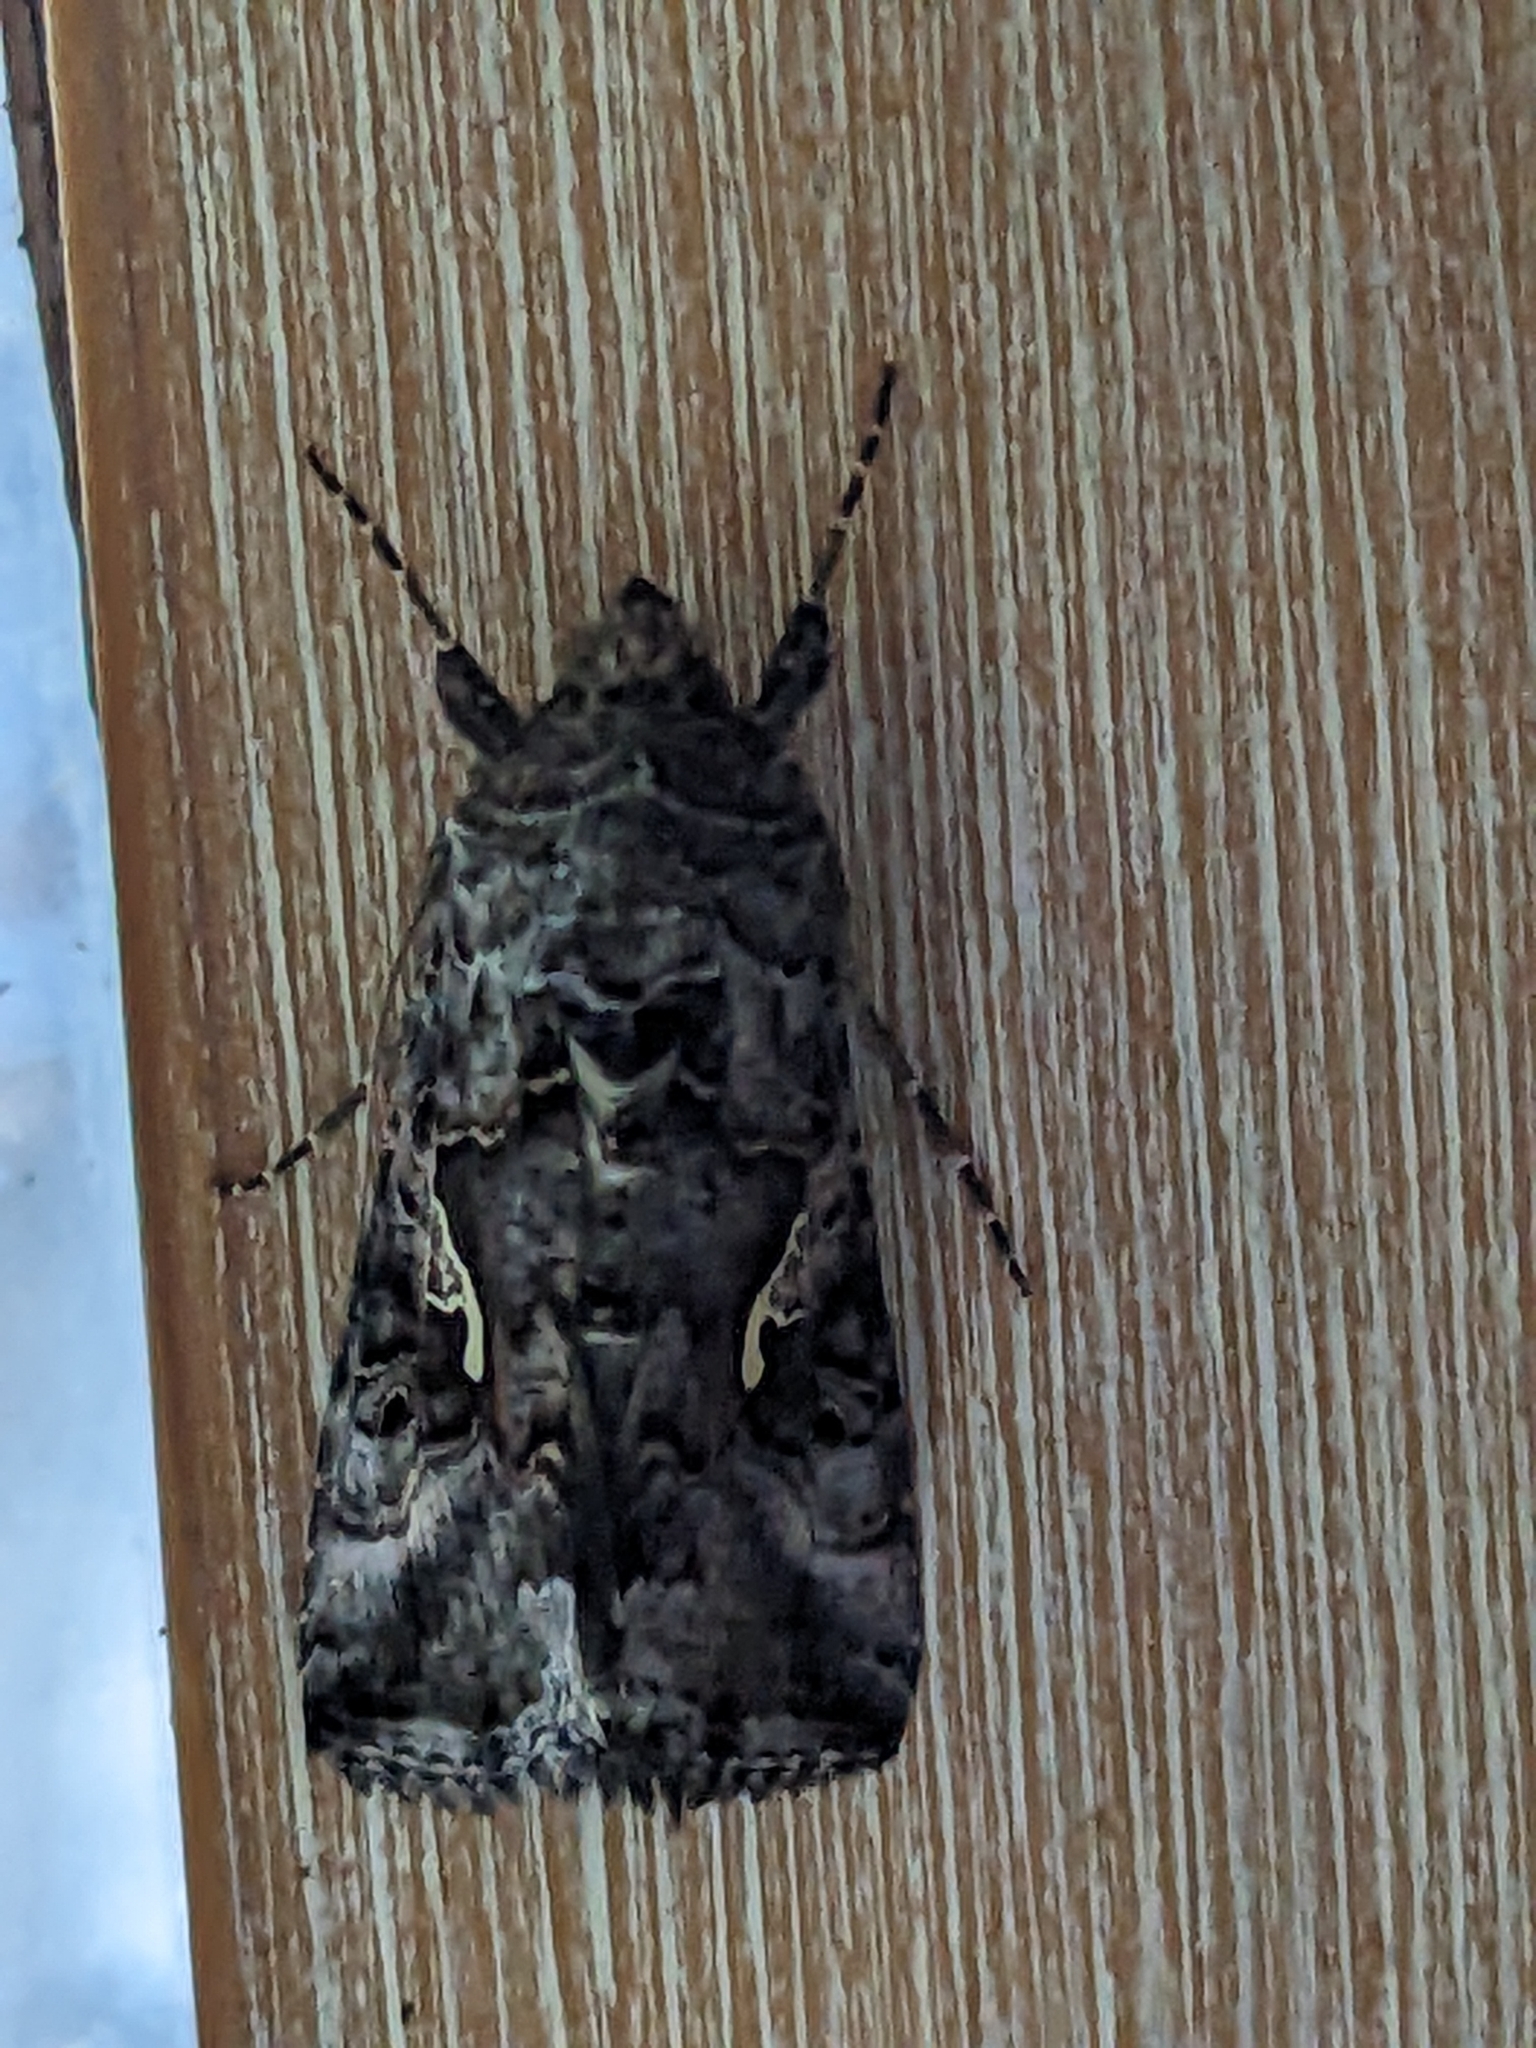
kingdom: Animalia
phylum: Arthropoda
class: Insecta
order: Lepidoptera
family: Noctuidae
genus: Autographa
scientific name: Autographa gamma
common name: Silver y
